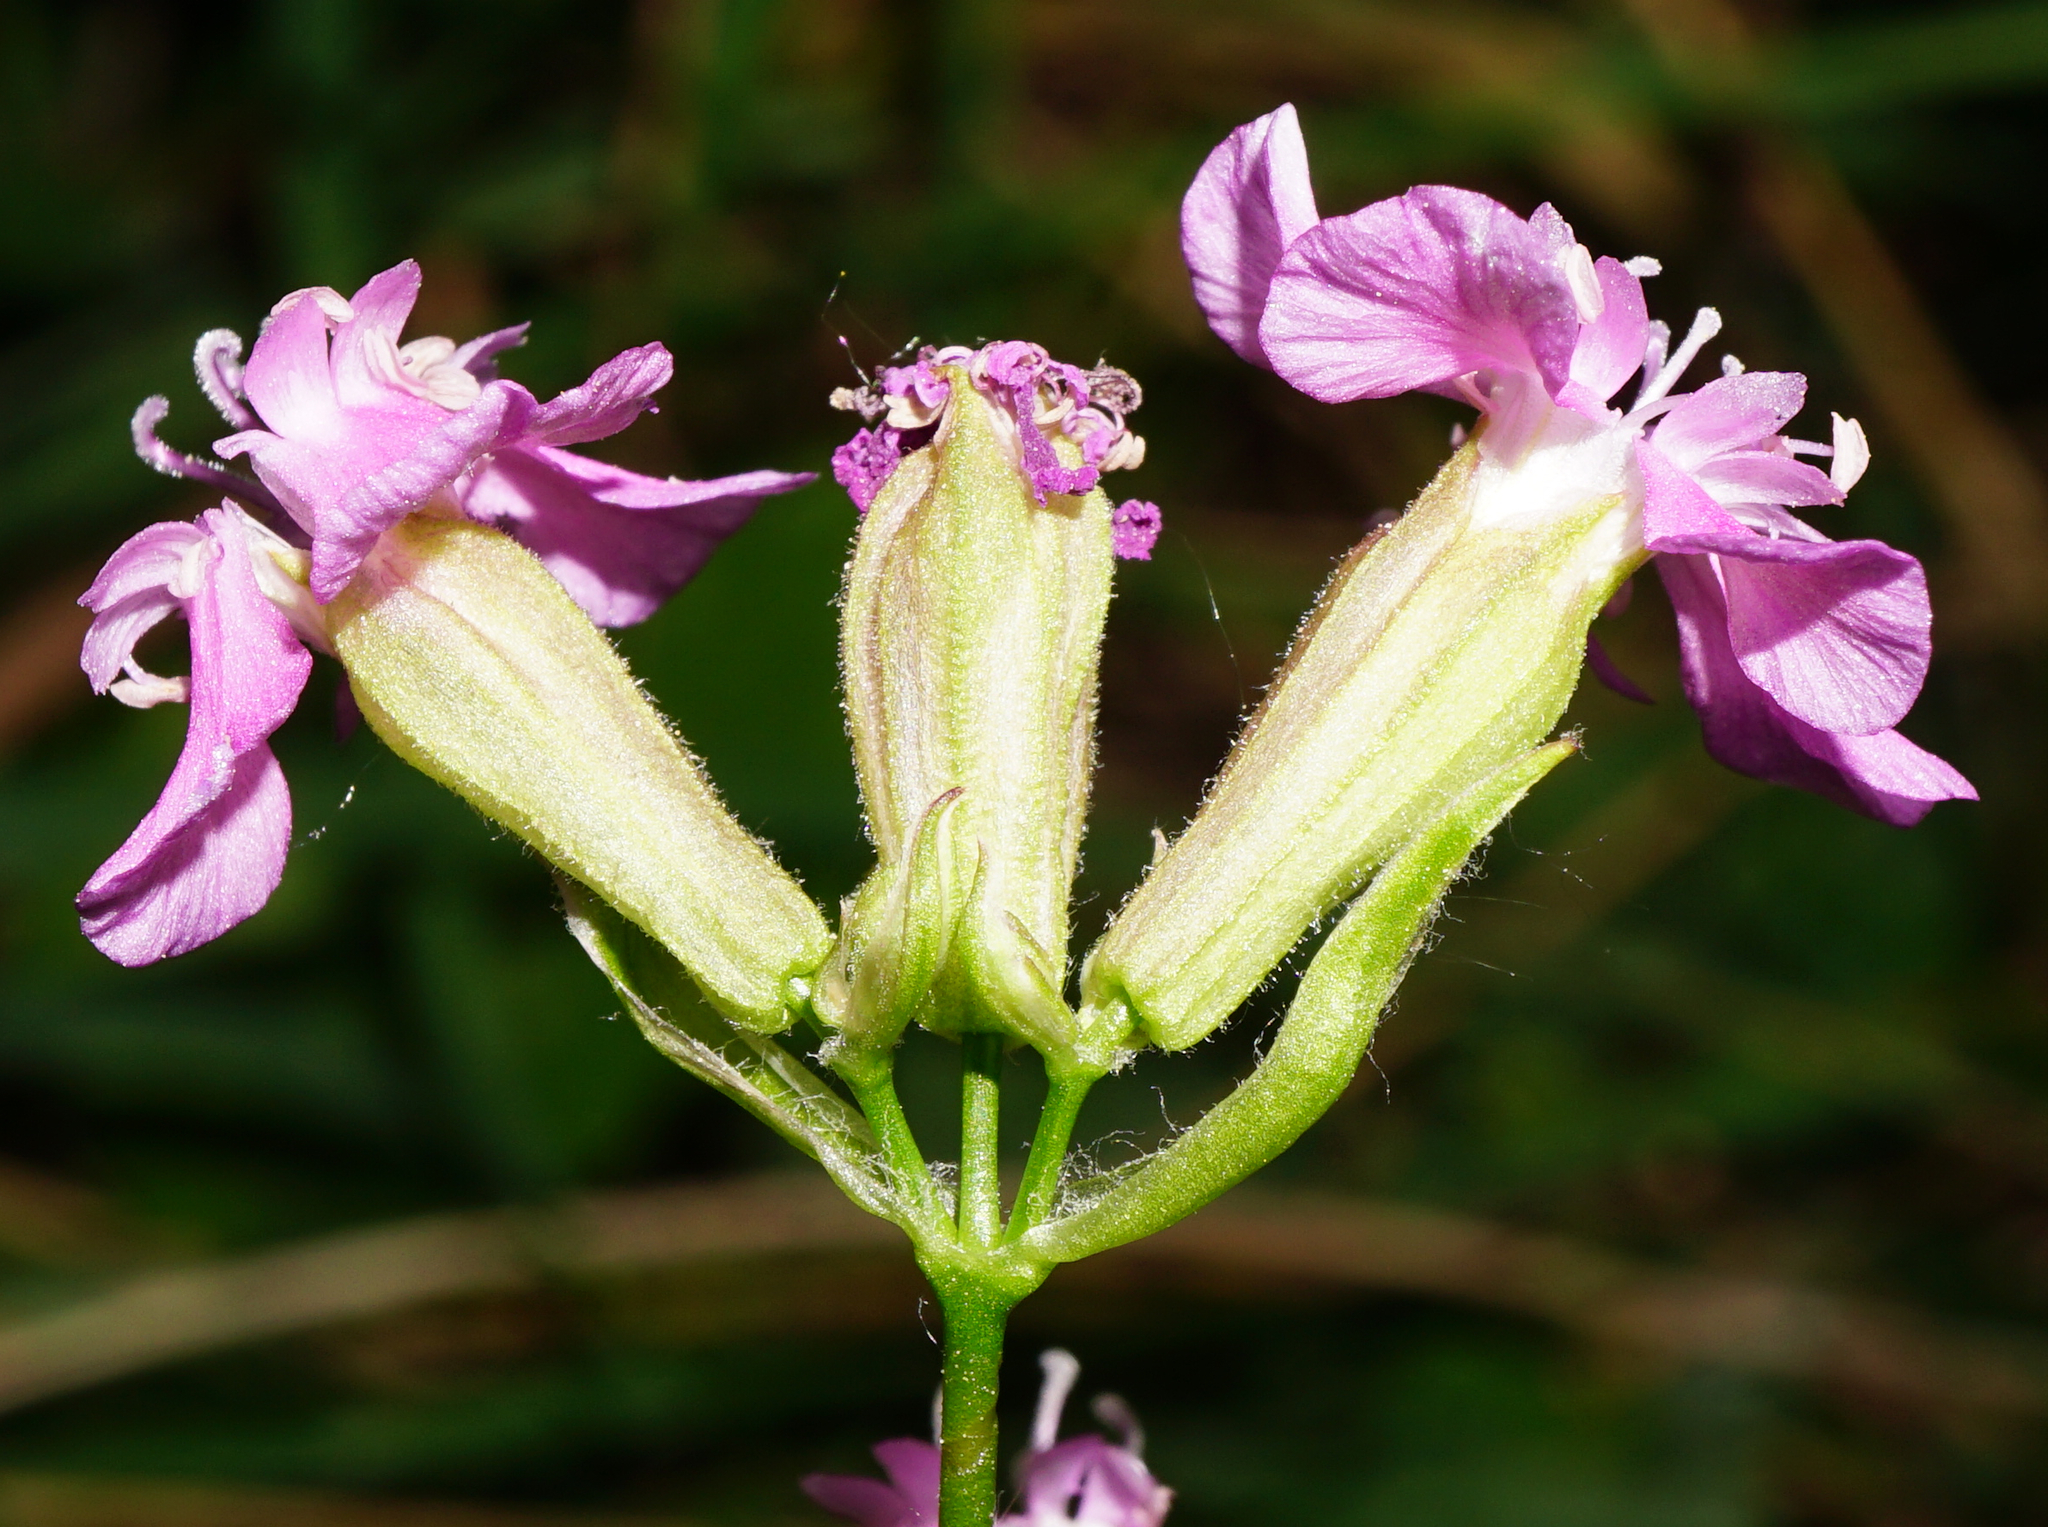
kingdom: Plantae
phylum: Tracheophyta
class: Magnoliopsida
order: Caryophyllales
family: Caryophyllaceae
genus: Viscaria
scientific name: Viscaria vulgaris
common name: Clammy campion
